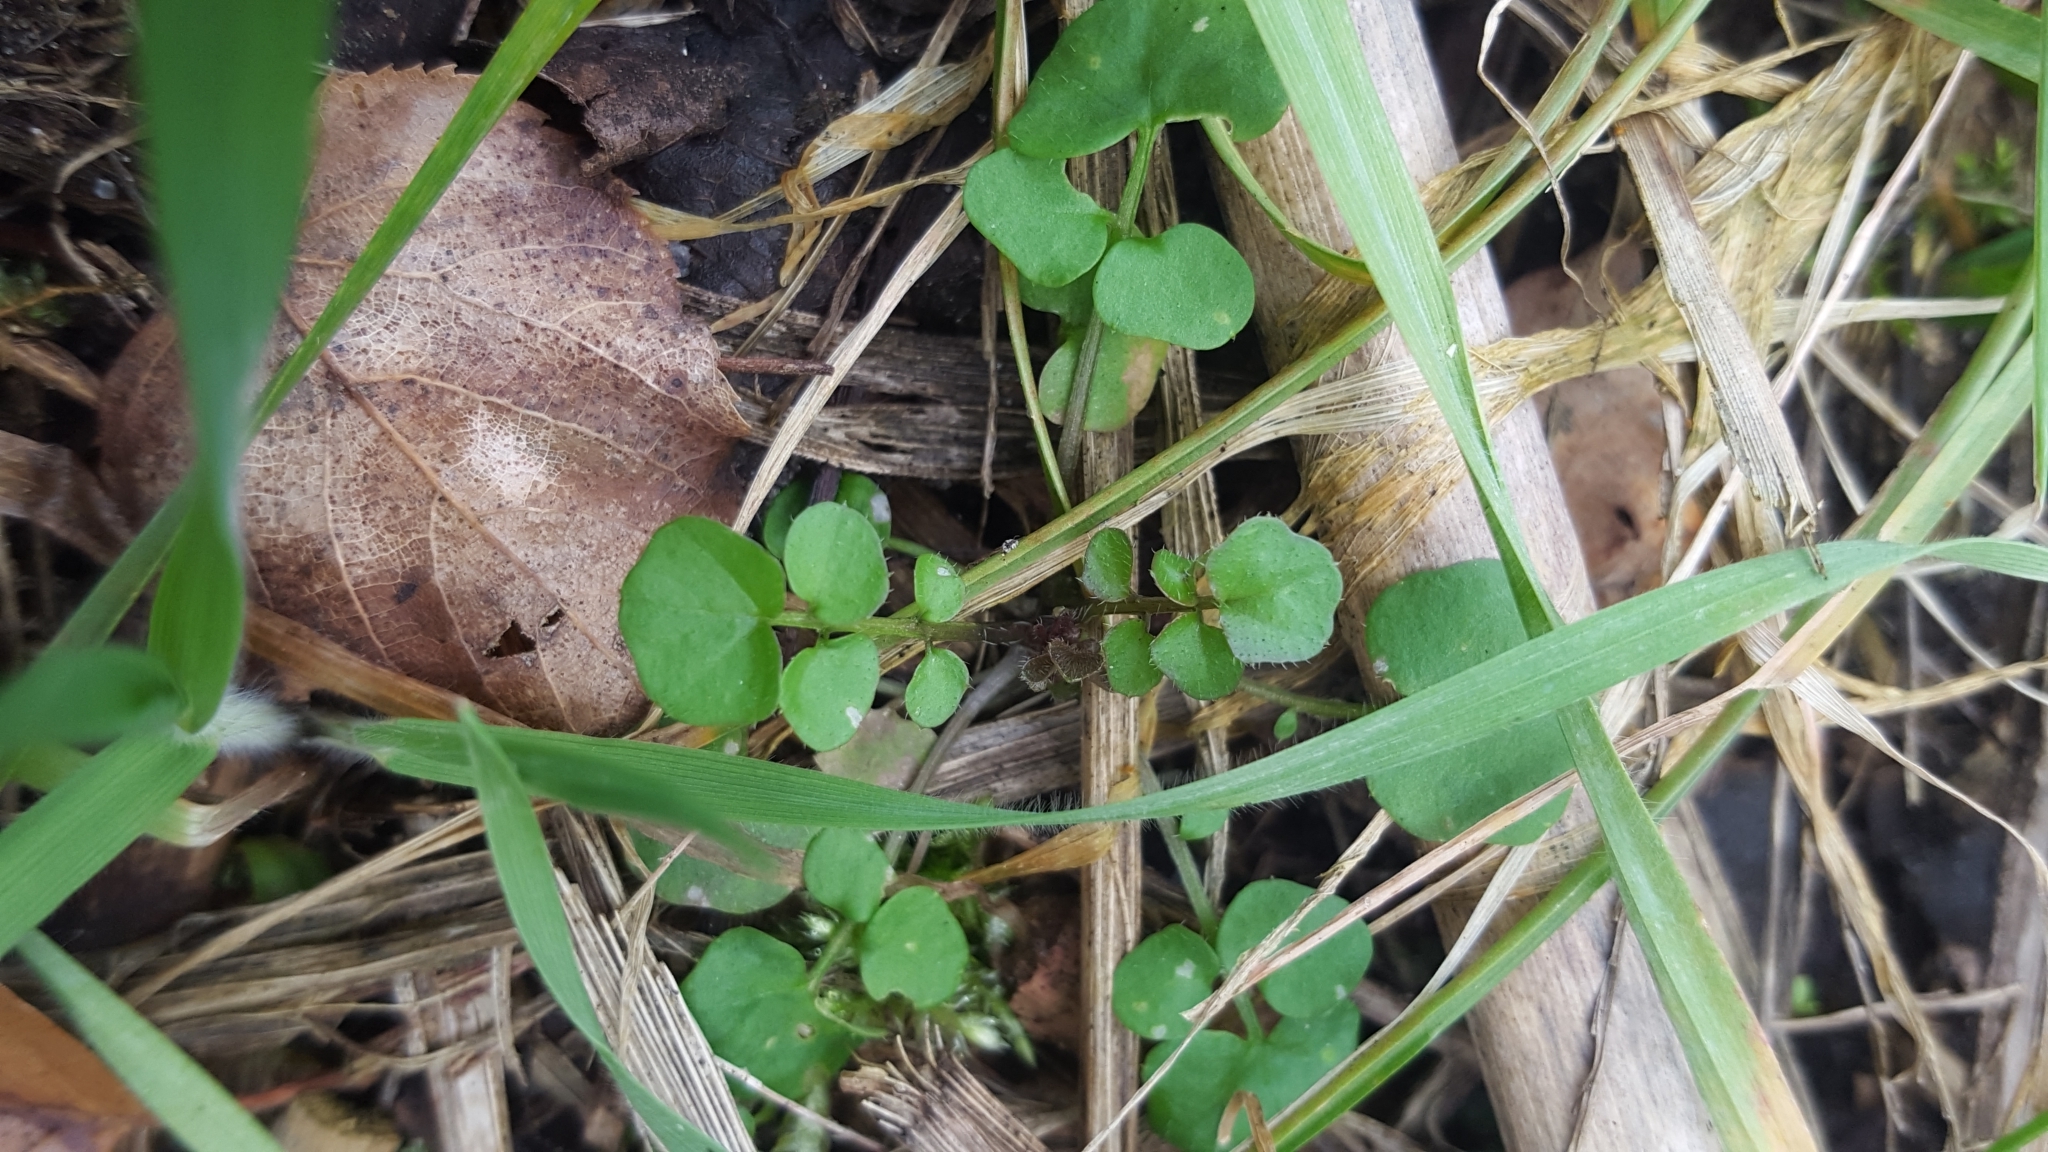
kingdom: Plantae
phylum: Tracheophyta
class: Magnoliopsida
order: Brassicales
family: Brassicaceae
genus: Cardamine
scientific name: Cardamine hirsuta
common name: Hairy bittercress
